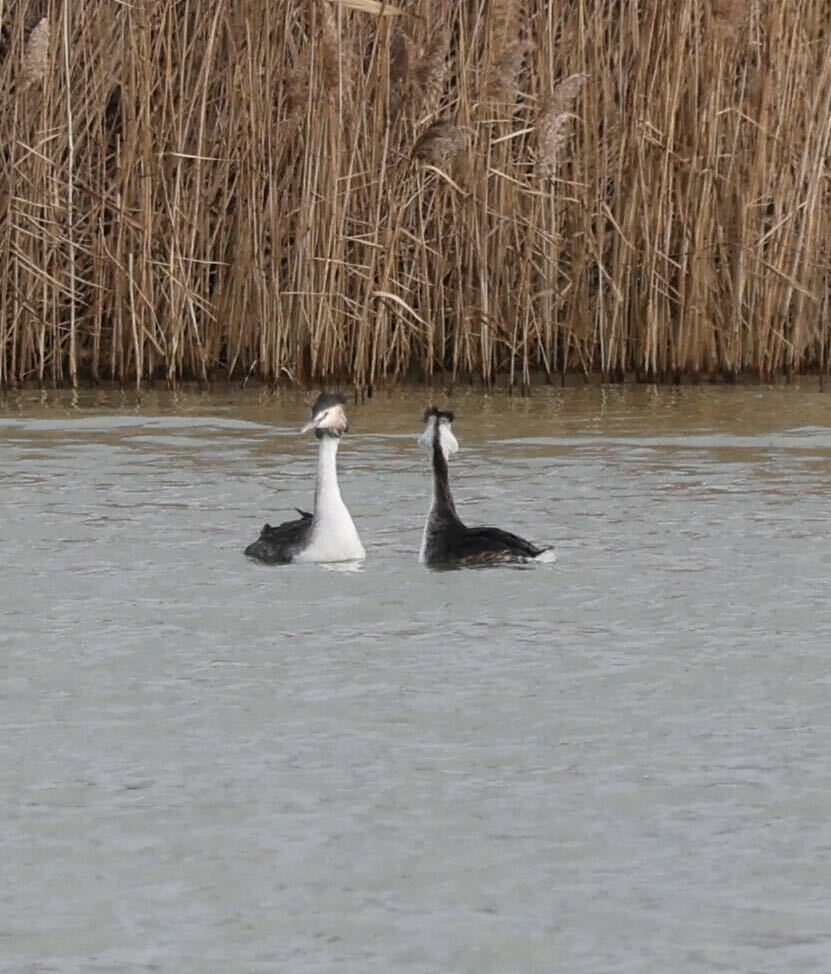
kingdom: Animalia
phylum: Chordata
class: Aves
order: Podicipediformes
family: Podicipedidae
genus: Podiceps
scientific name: Podiceps cristatus
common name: Great crested grebe
